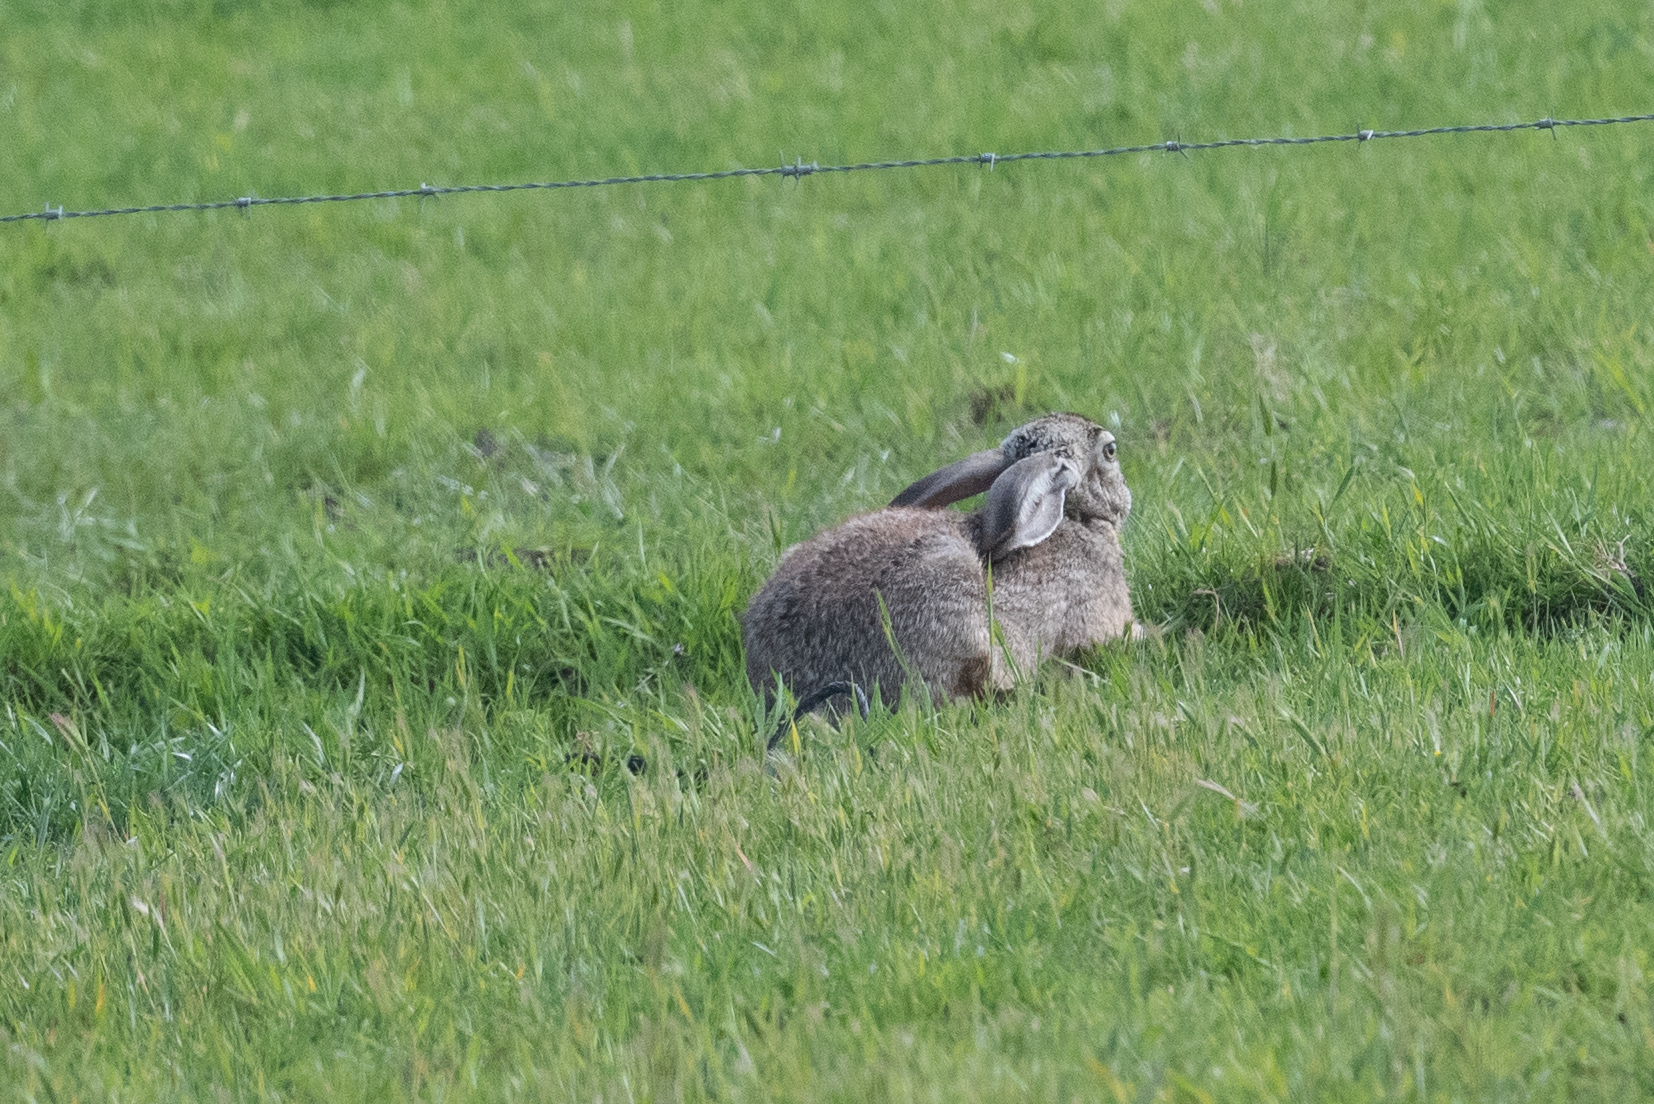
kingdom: Animalia
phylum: Chordata
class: Mammalia
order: Lagomorpha
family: Leporidae
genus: Lepus
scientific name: Lepus californicus
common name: Black-tailed jackrabbit
